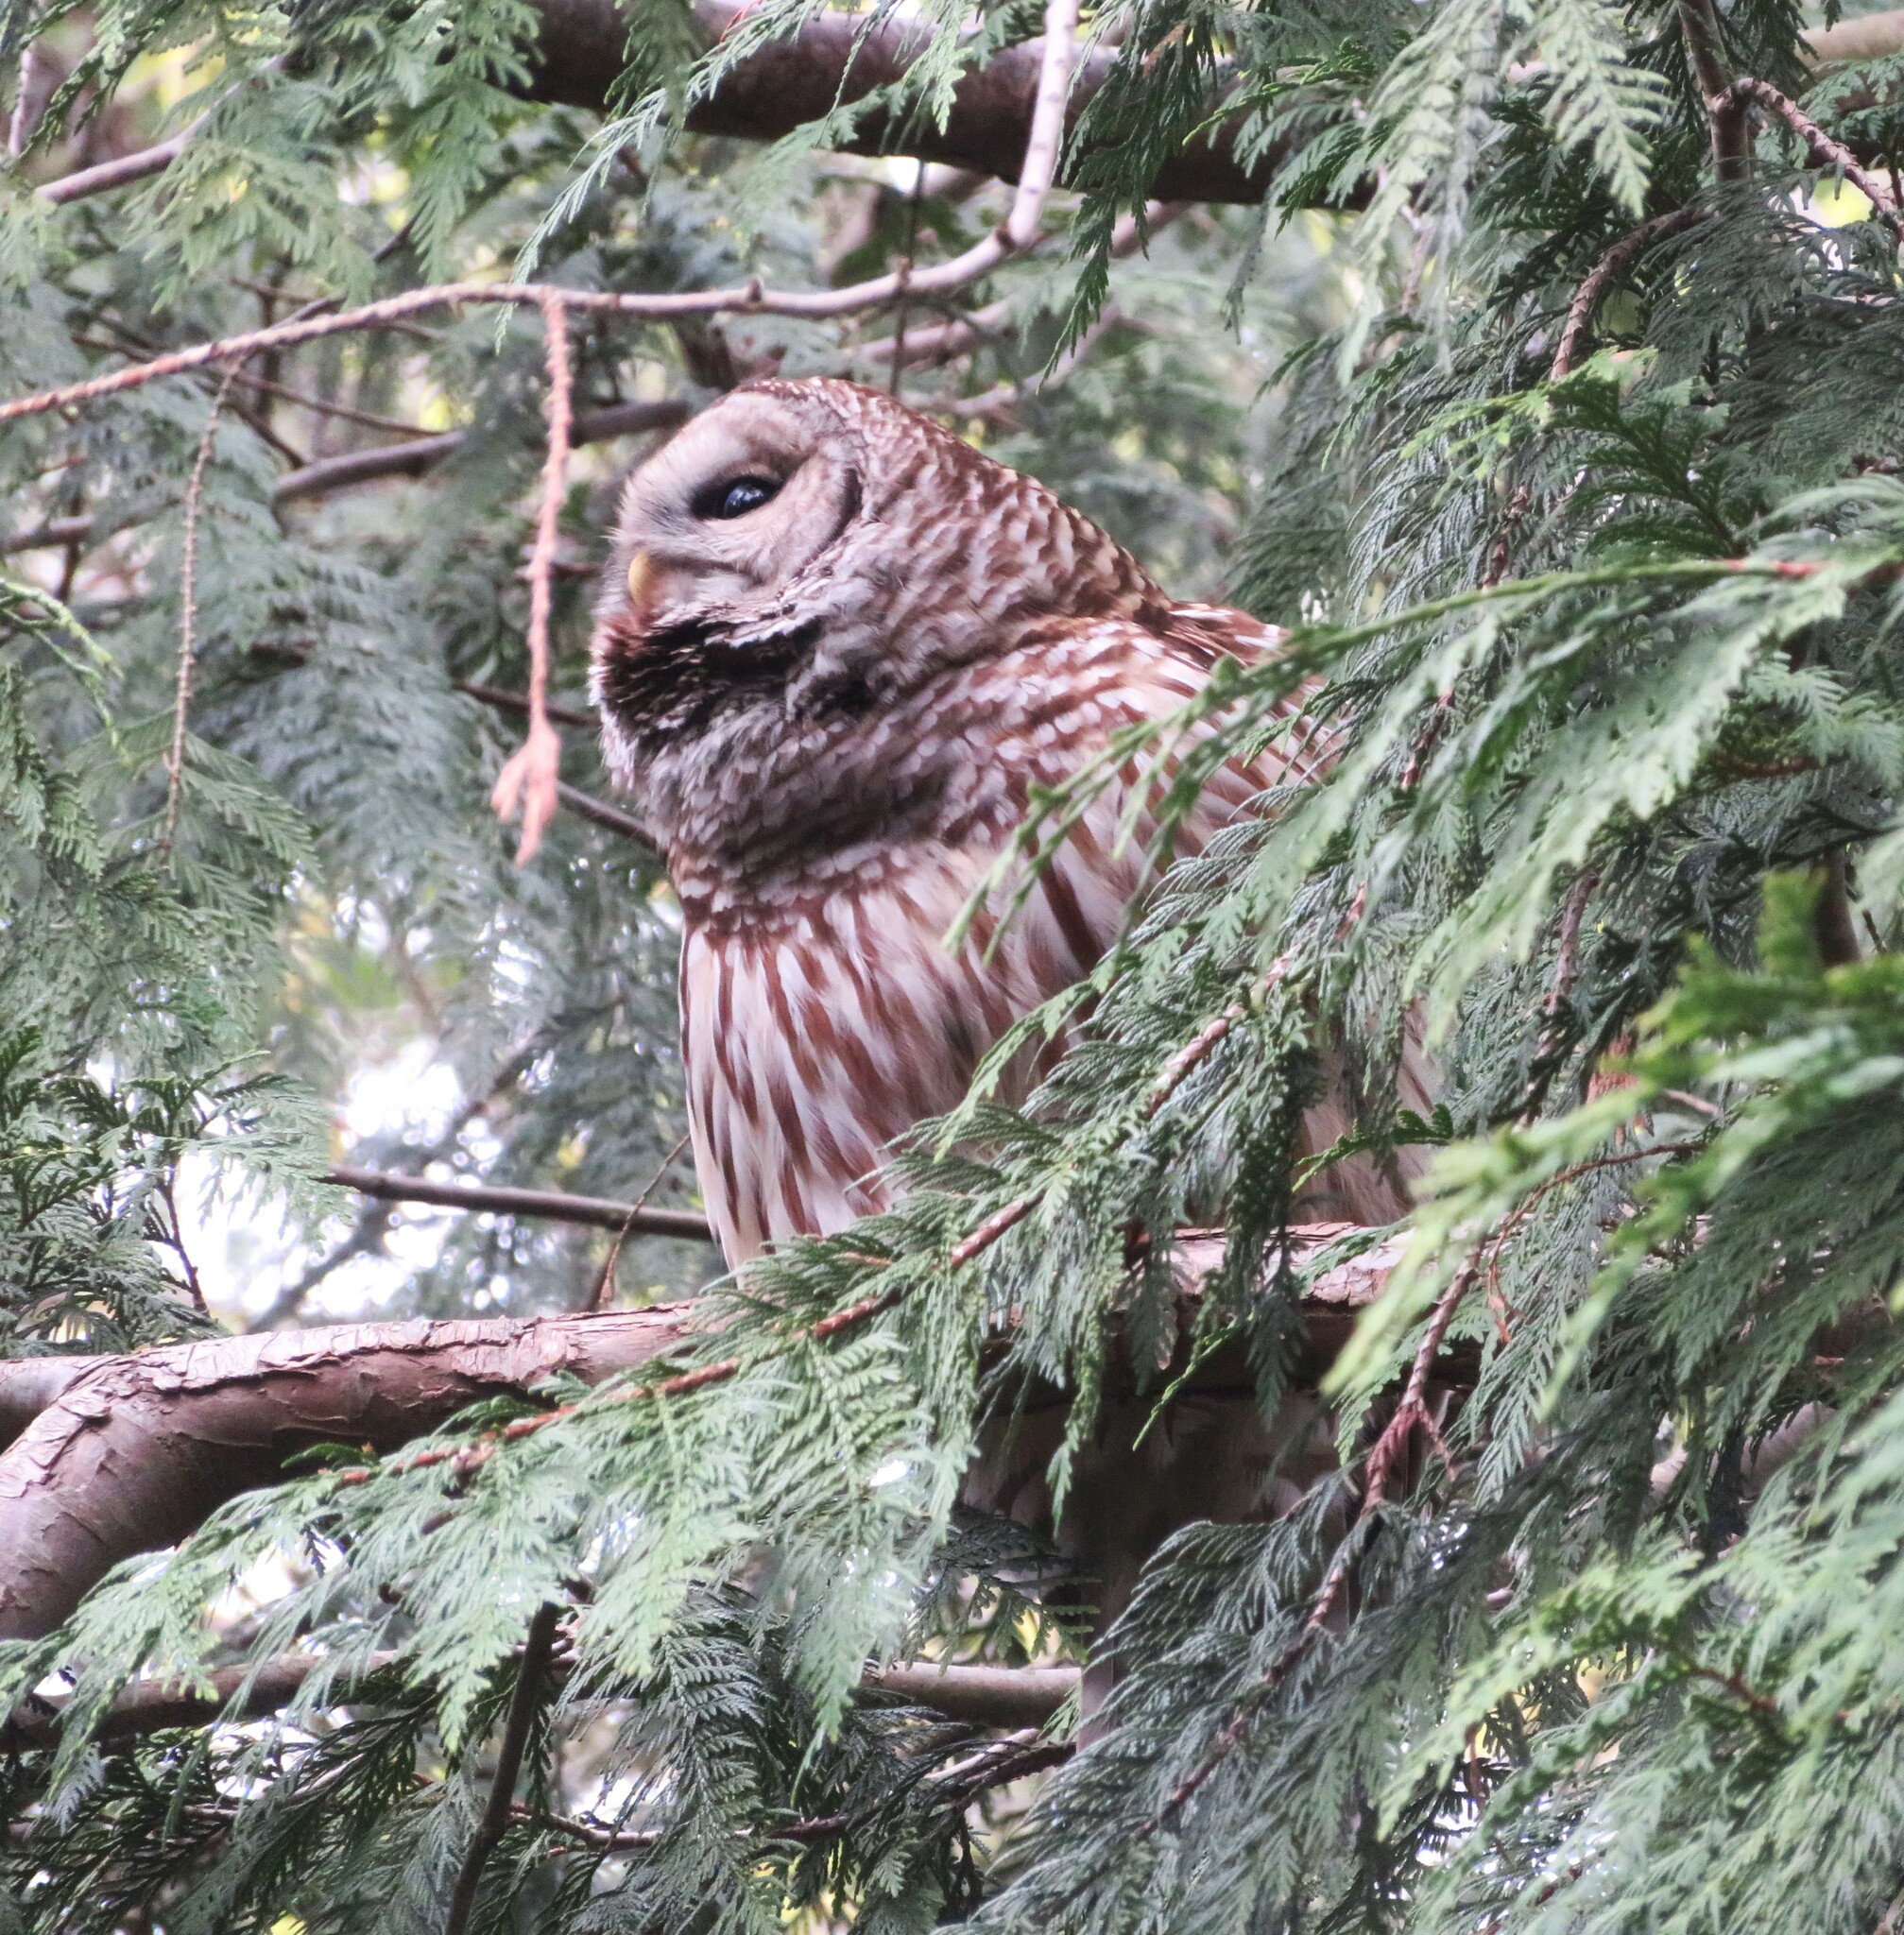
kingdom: Animalia
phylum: Chordata
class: Aves
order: Strigiformes
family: Strigidae
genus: Strix
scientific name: Strix varia
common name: Barred owl
